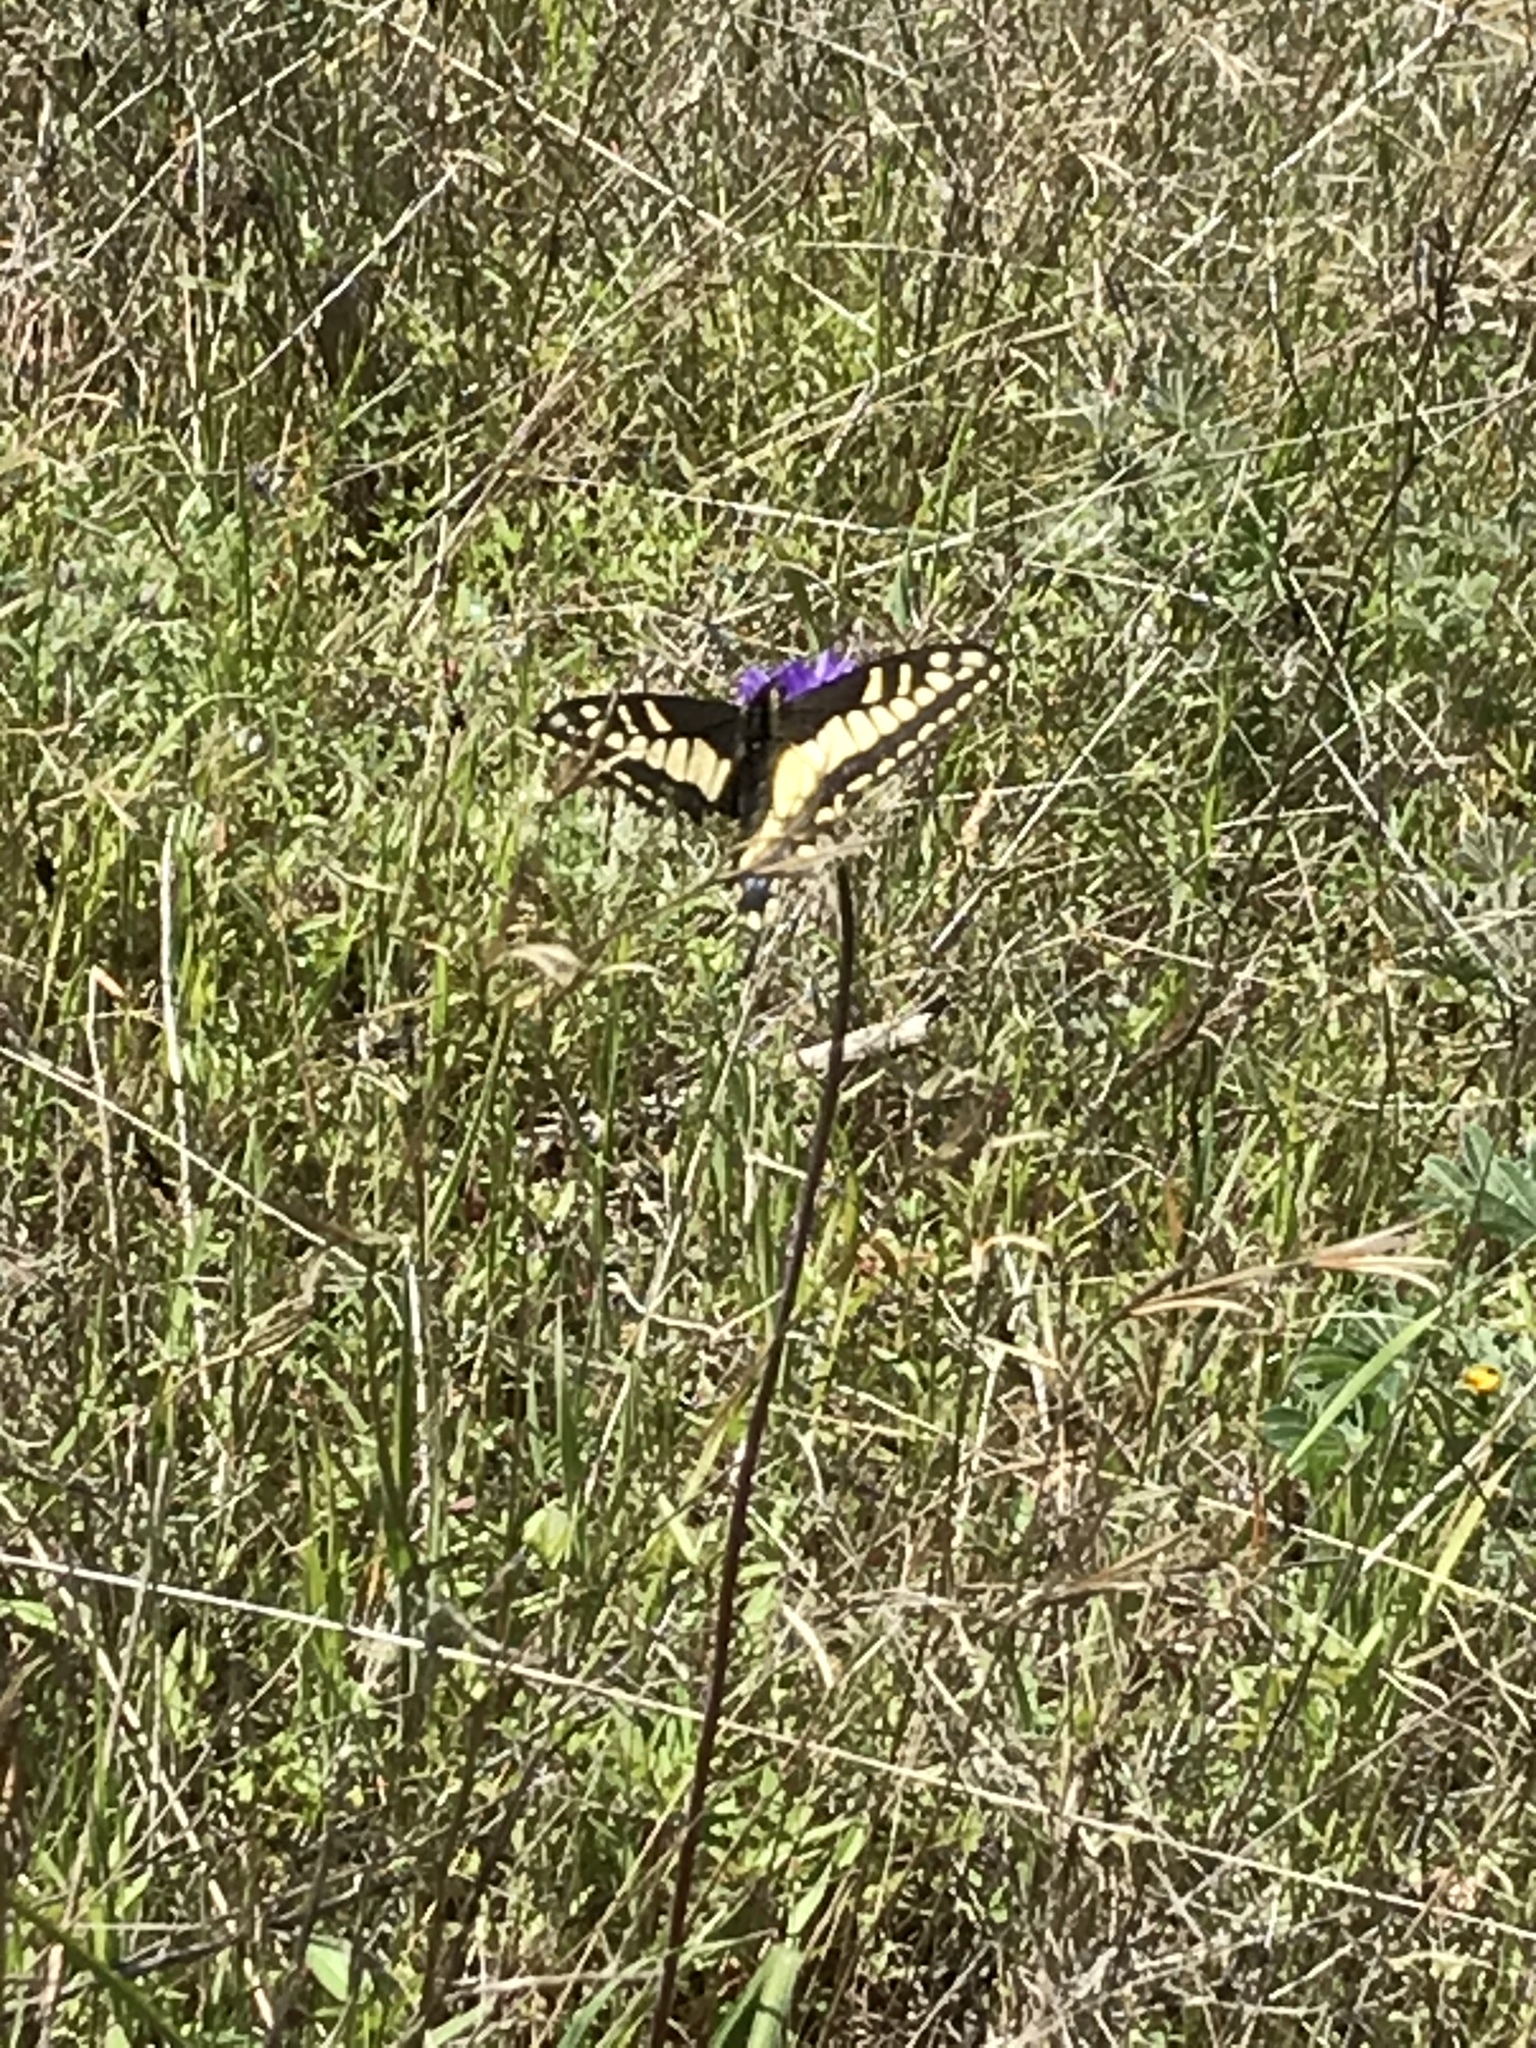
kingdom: Animalia
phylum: Arthropoda
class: Insecta
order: Lepidoptera
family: Papilionidae
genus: Papilio
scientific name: Papilio zelicaon
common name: Anise swallowtail
